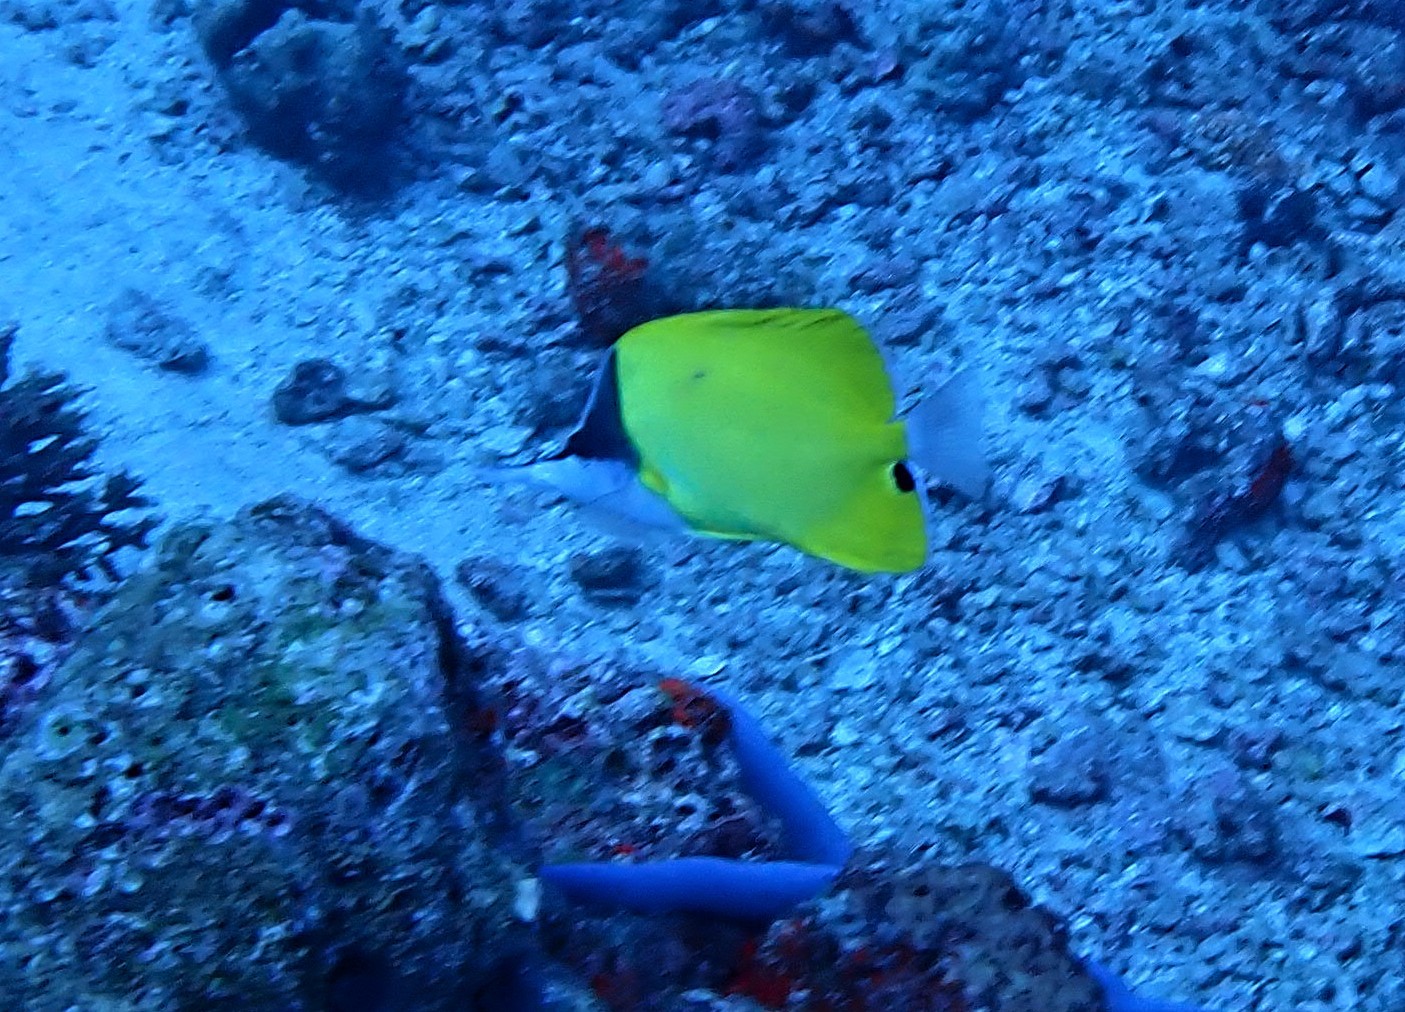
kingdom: Animalia
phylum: Chordata
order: Perciformes
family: Chaetodontidae
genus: Forcipiger
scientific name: Forcipiger flavissimus
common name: Forcepsfish
